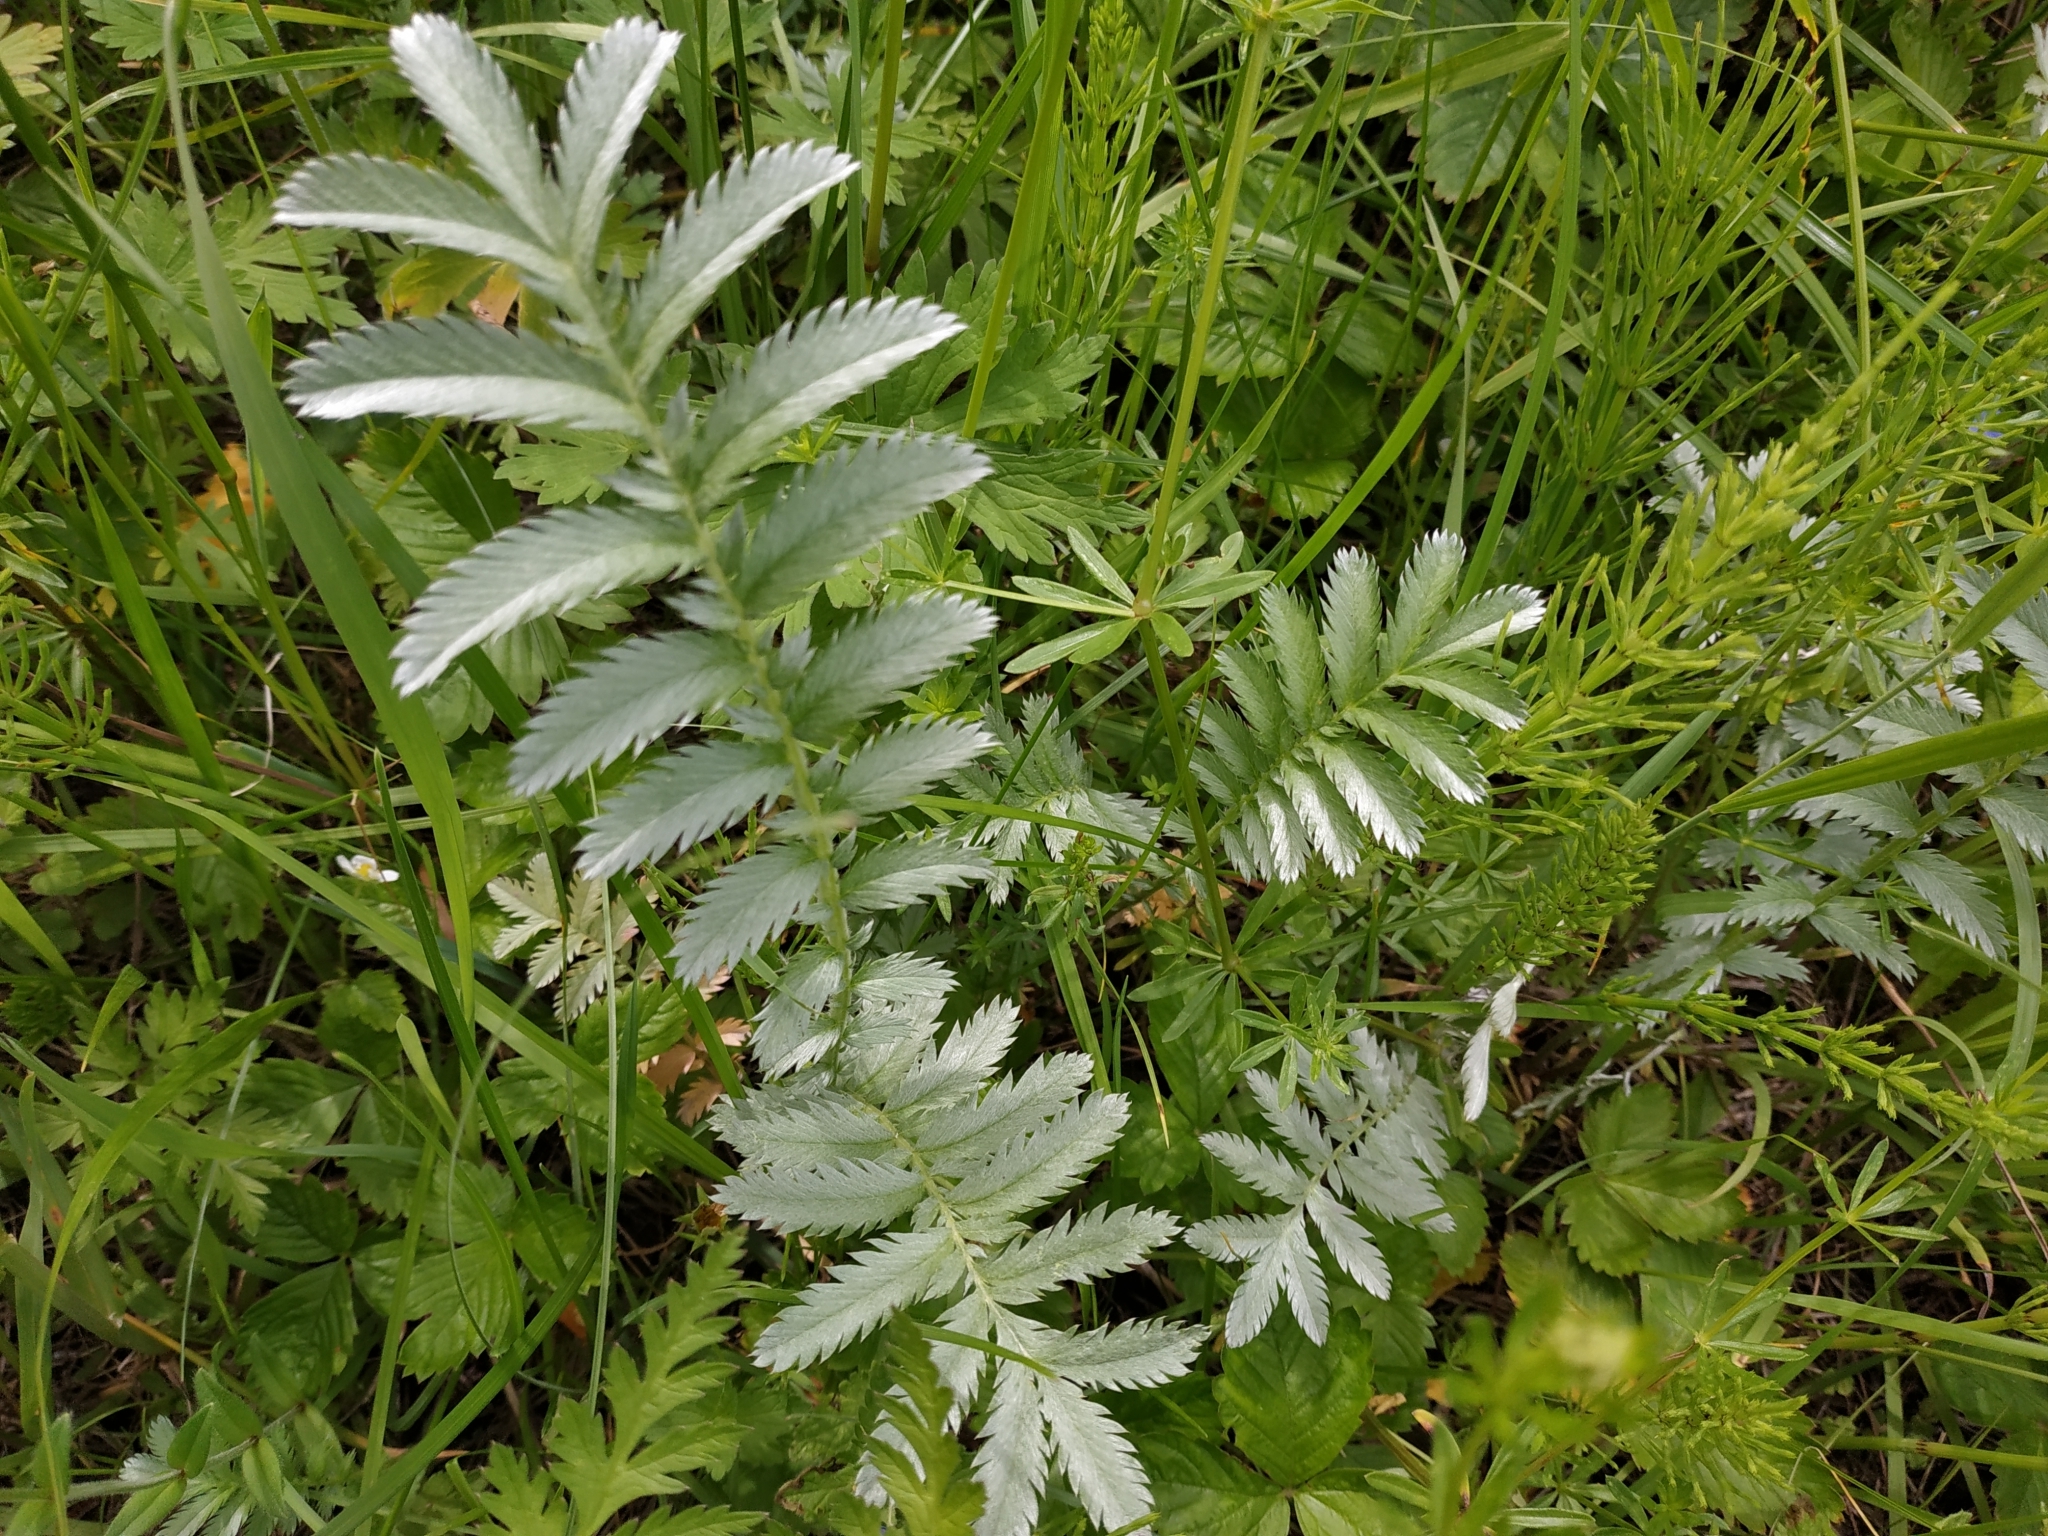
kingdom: Plantae
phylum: Tracheophyta
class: Magnoliopsida
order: Rosales
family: Rosaceae
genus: Argentina
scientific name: Argentina anserina
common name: Common silverweed
